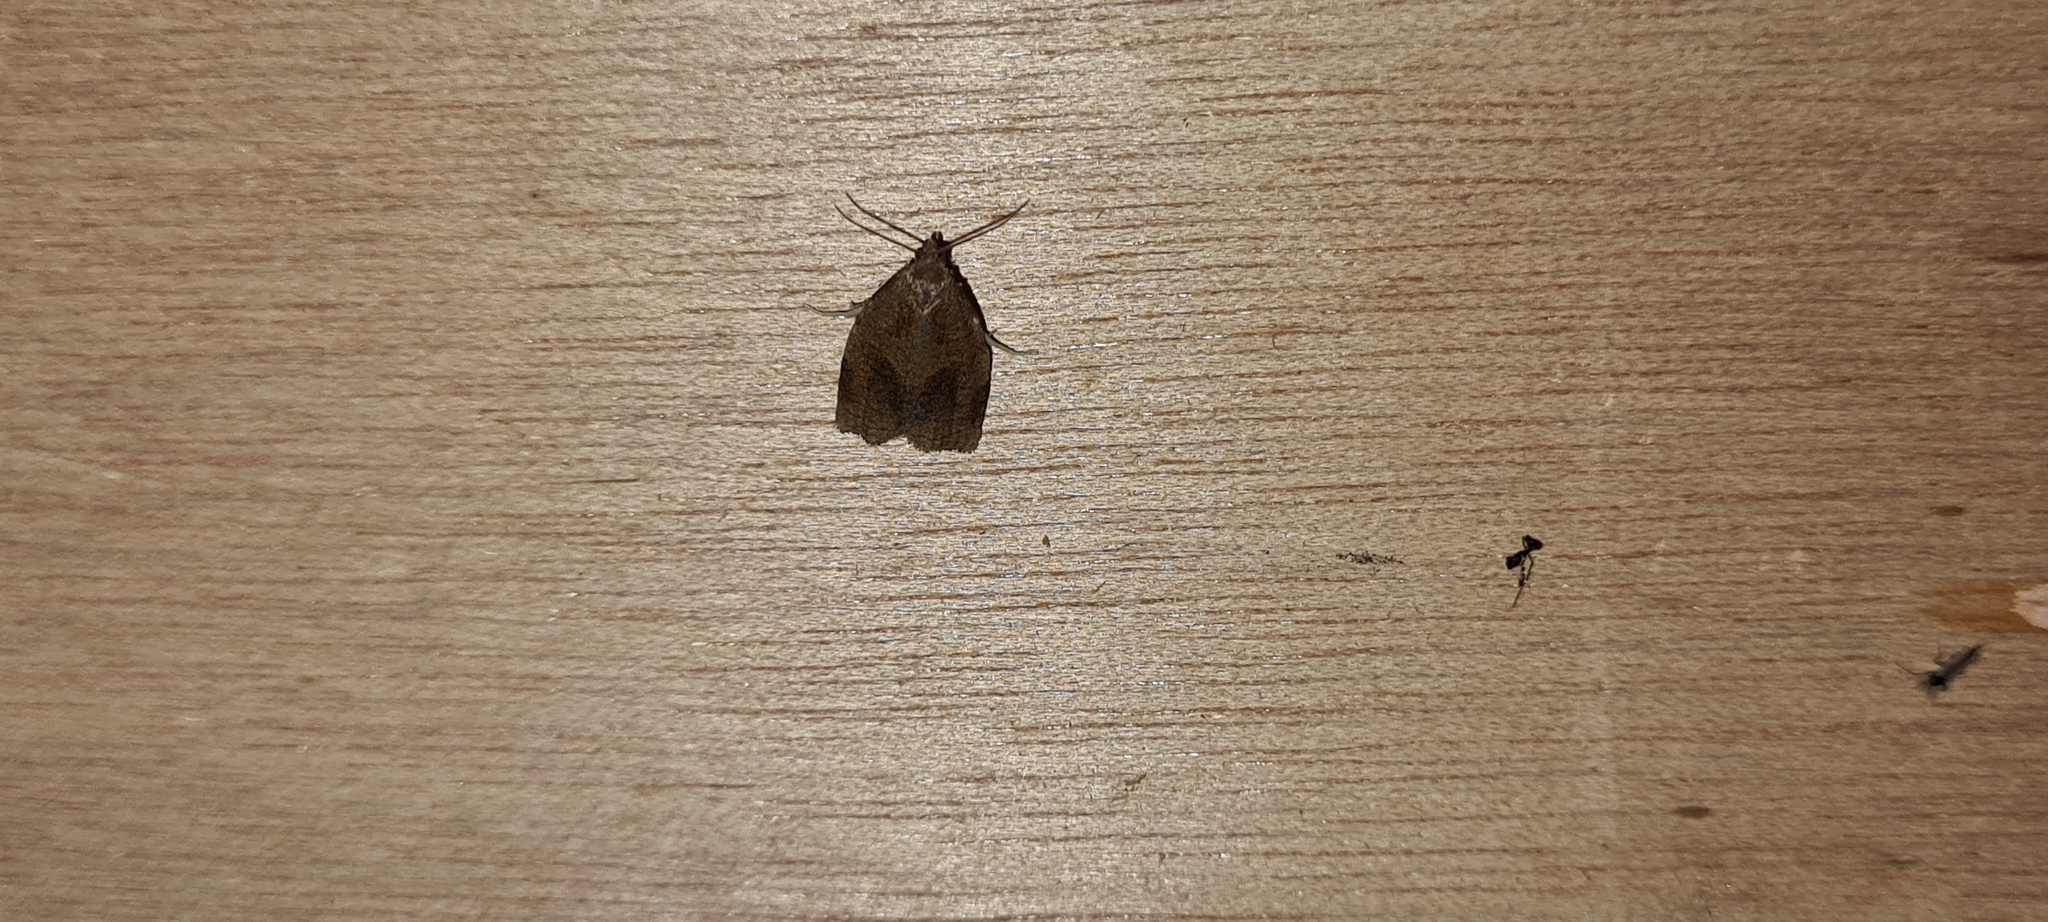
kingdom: Animalia
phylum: Arthropoda
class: Insecta
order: Lepidoptera
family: Tortricidae
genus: Archips
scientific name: Archips rosana
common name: Rose tortrix
